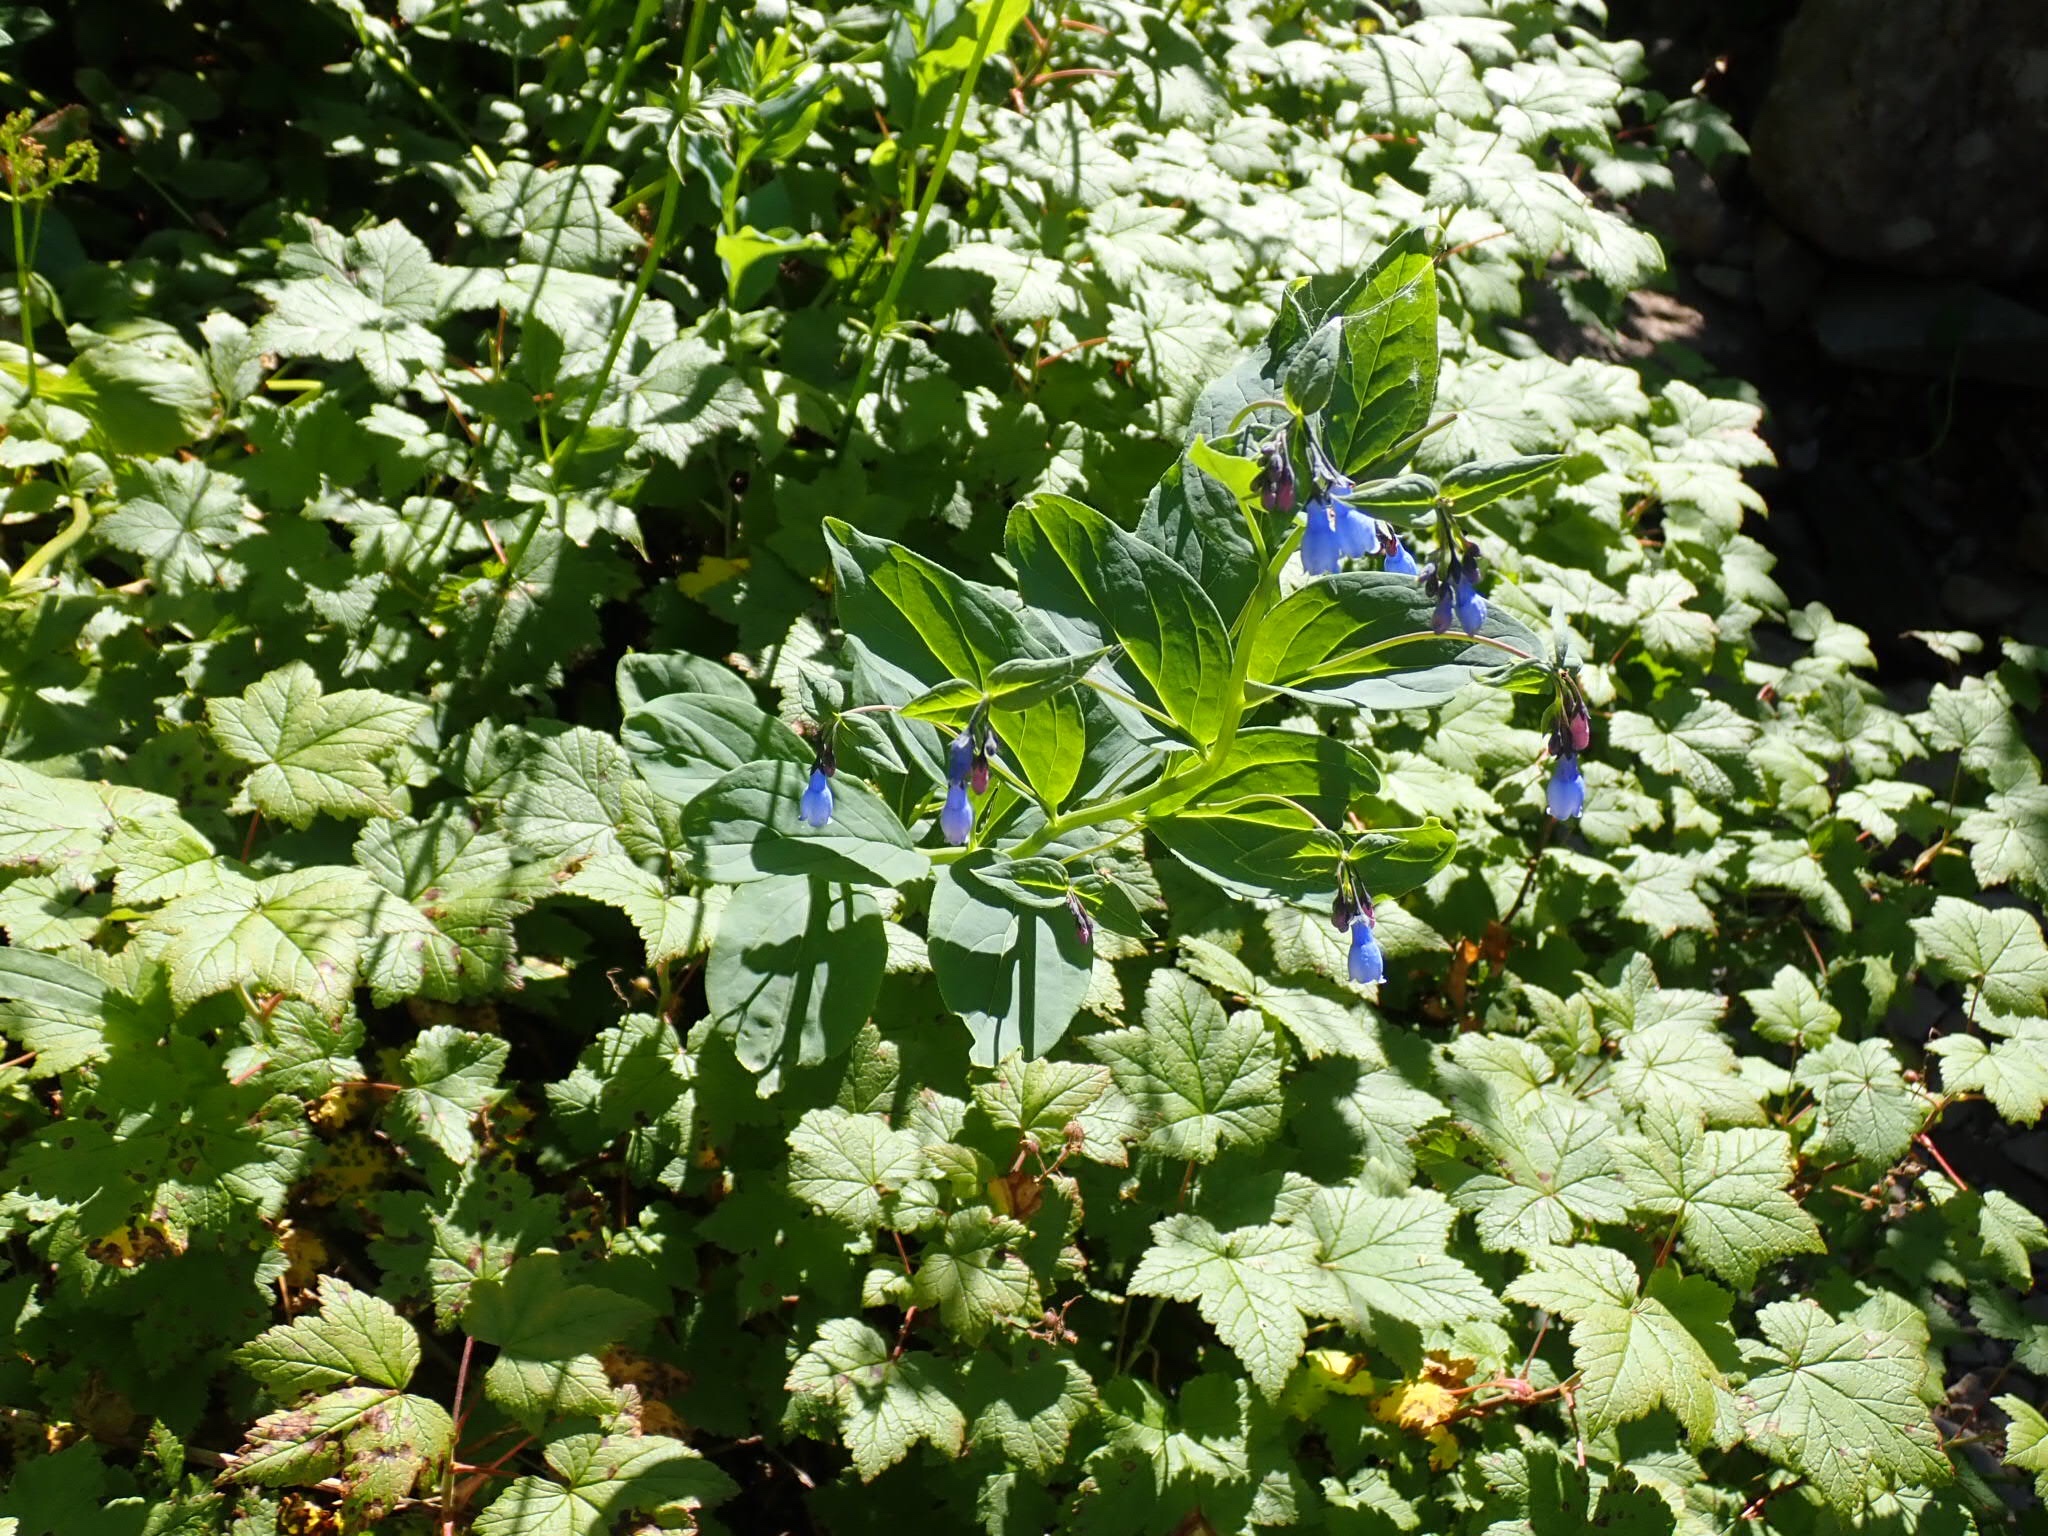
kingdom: Plantae
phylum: Tracheophyta
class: Magnoliopsida
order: Boraginales
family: Boraginaceae
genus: Mertensia
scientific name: Mertensia paniculata
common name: Panicled bluebells
